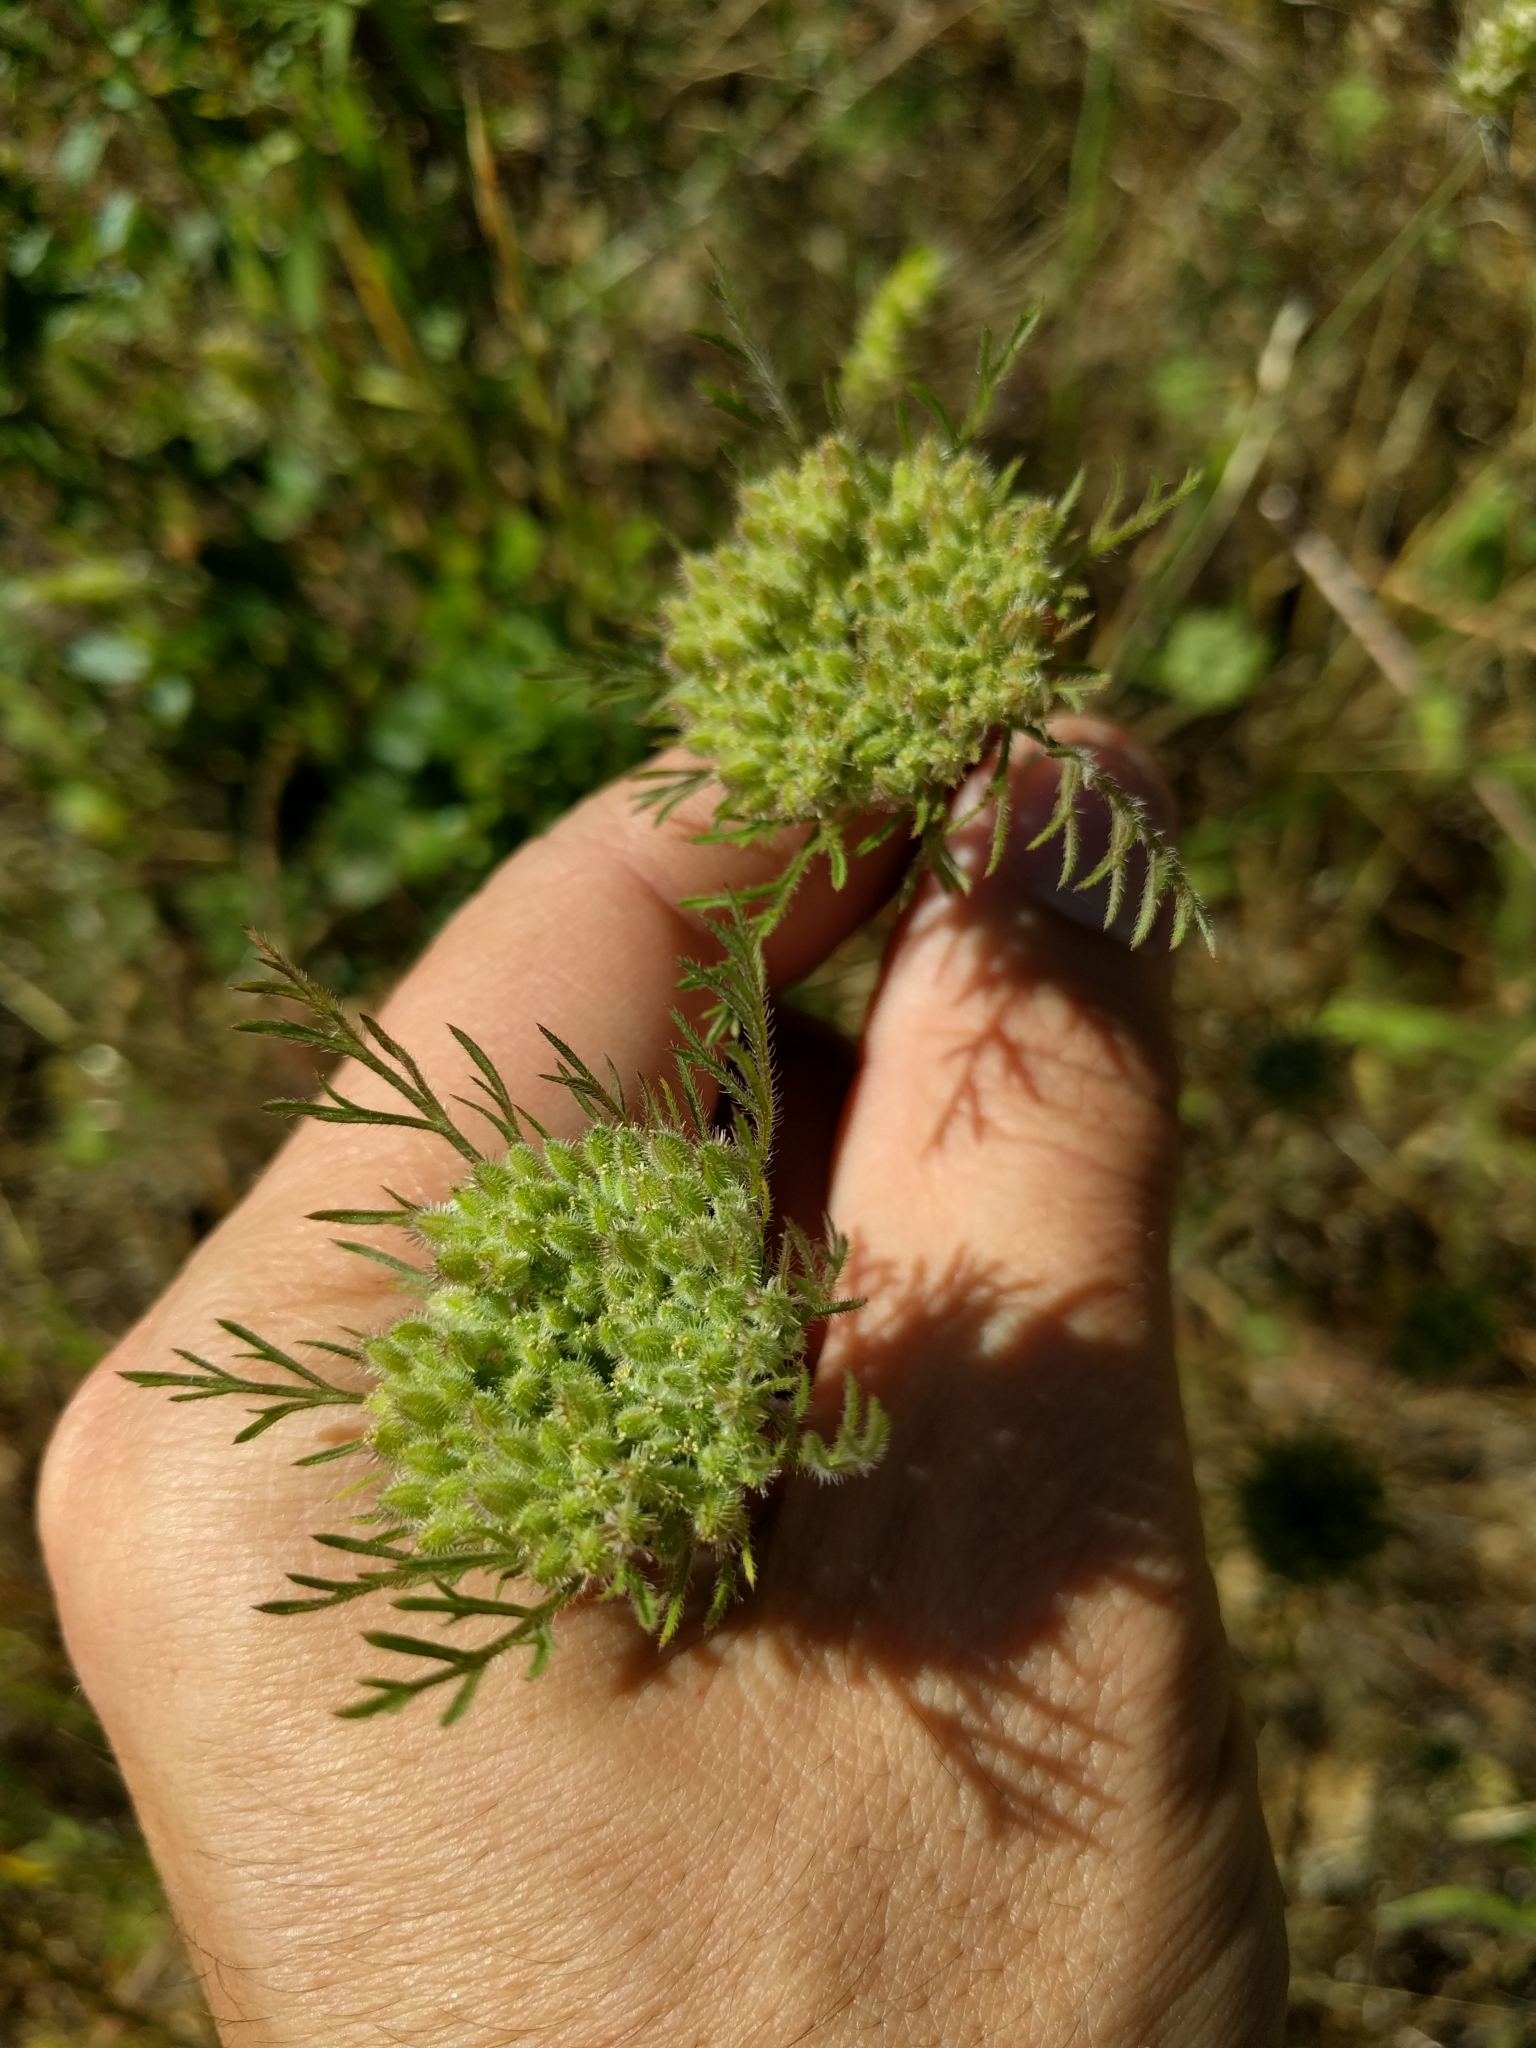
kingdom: Plantae
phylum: Tracheophyta
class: Magnoliopsida
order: Apiales
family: Apiaceae
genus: Daucus
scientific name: Daucus pusillus
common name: Southwest wild carrot
